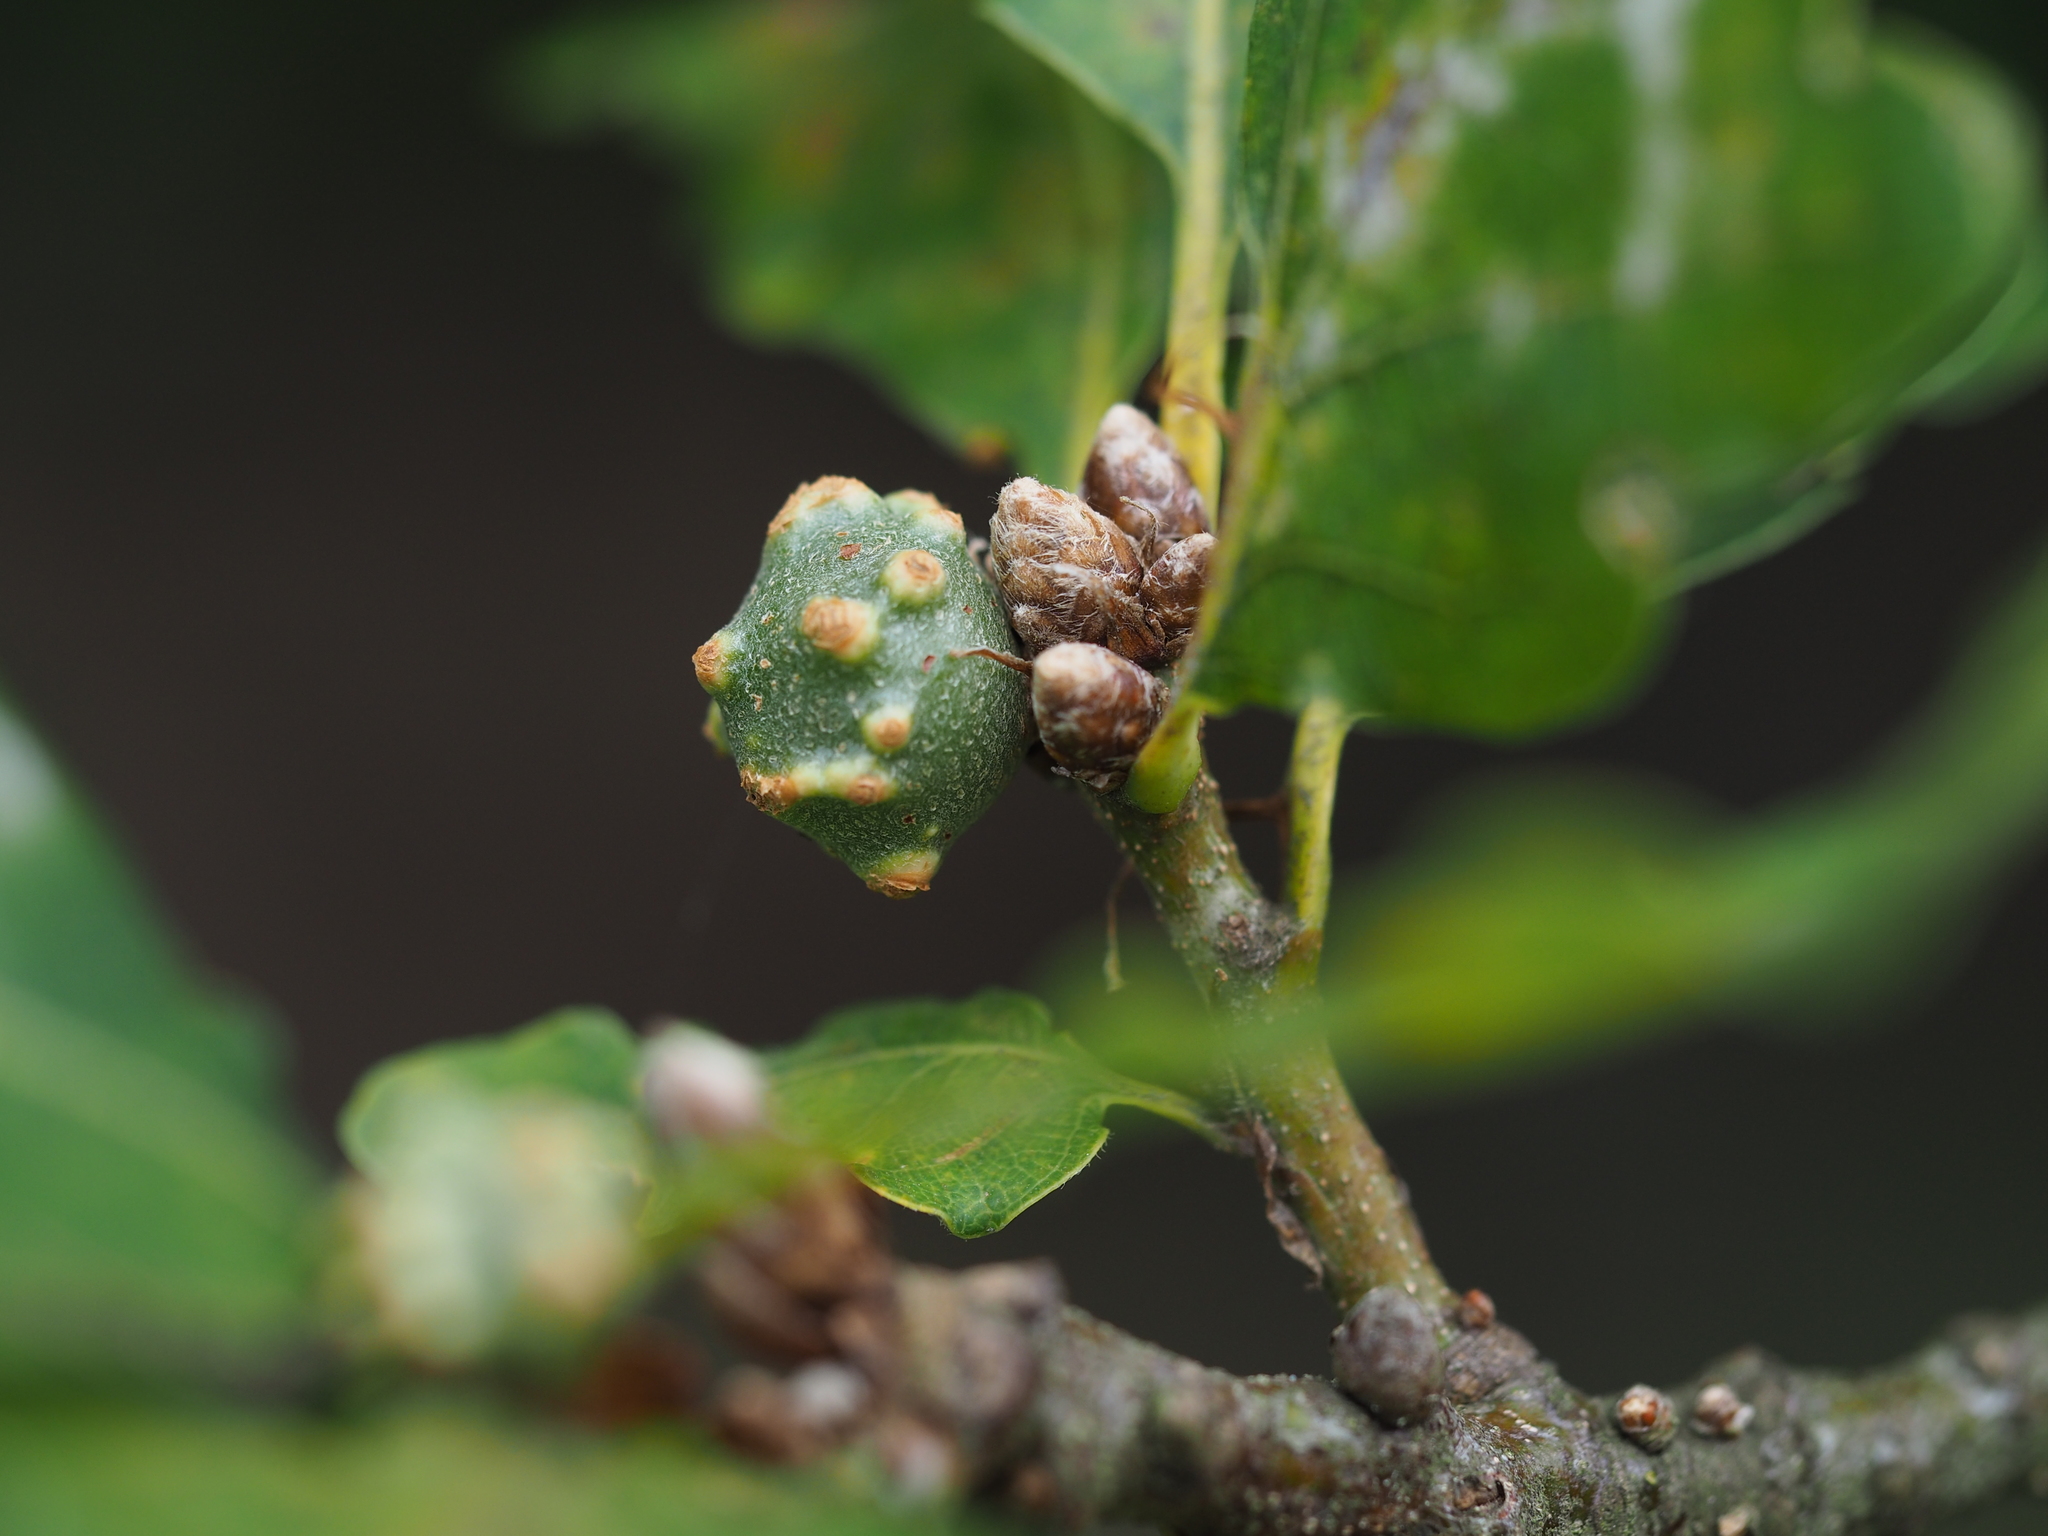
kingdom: Animalia
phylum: Arthropoda
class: Insecta
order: Hymenoptera
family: Cynipidae
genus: Andricus
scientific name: Andricus infectorius
